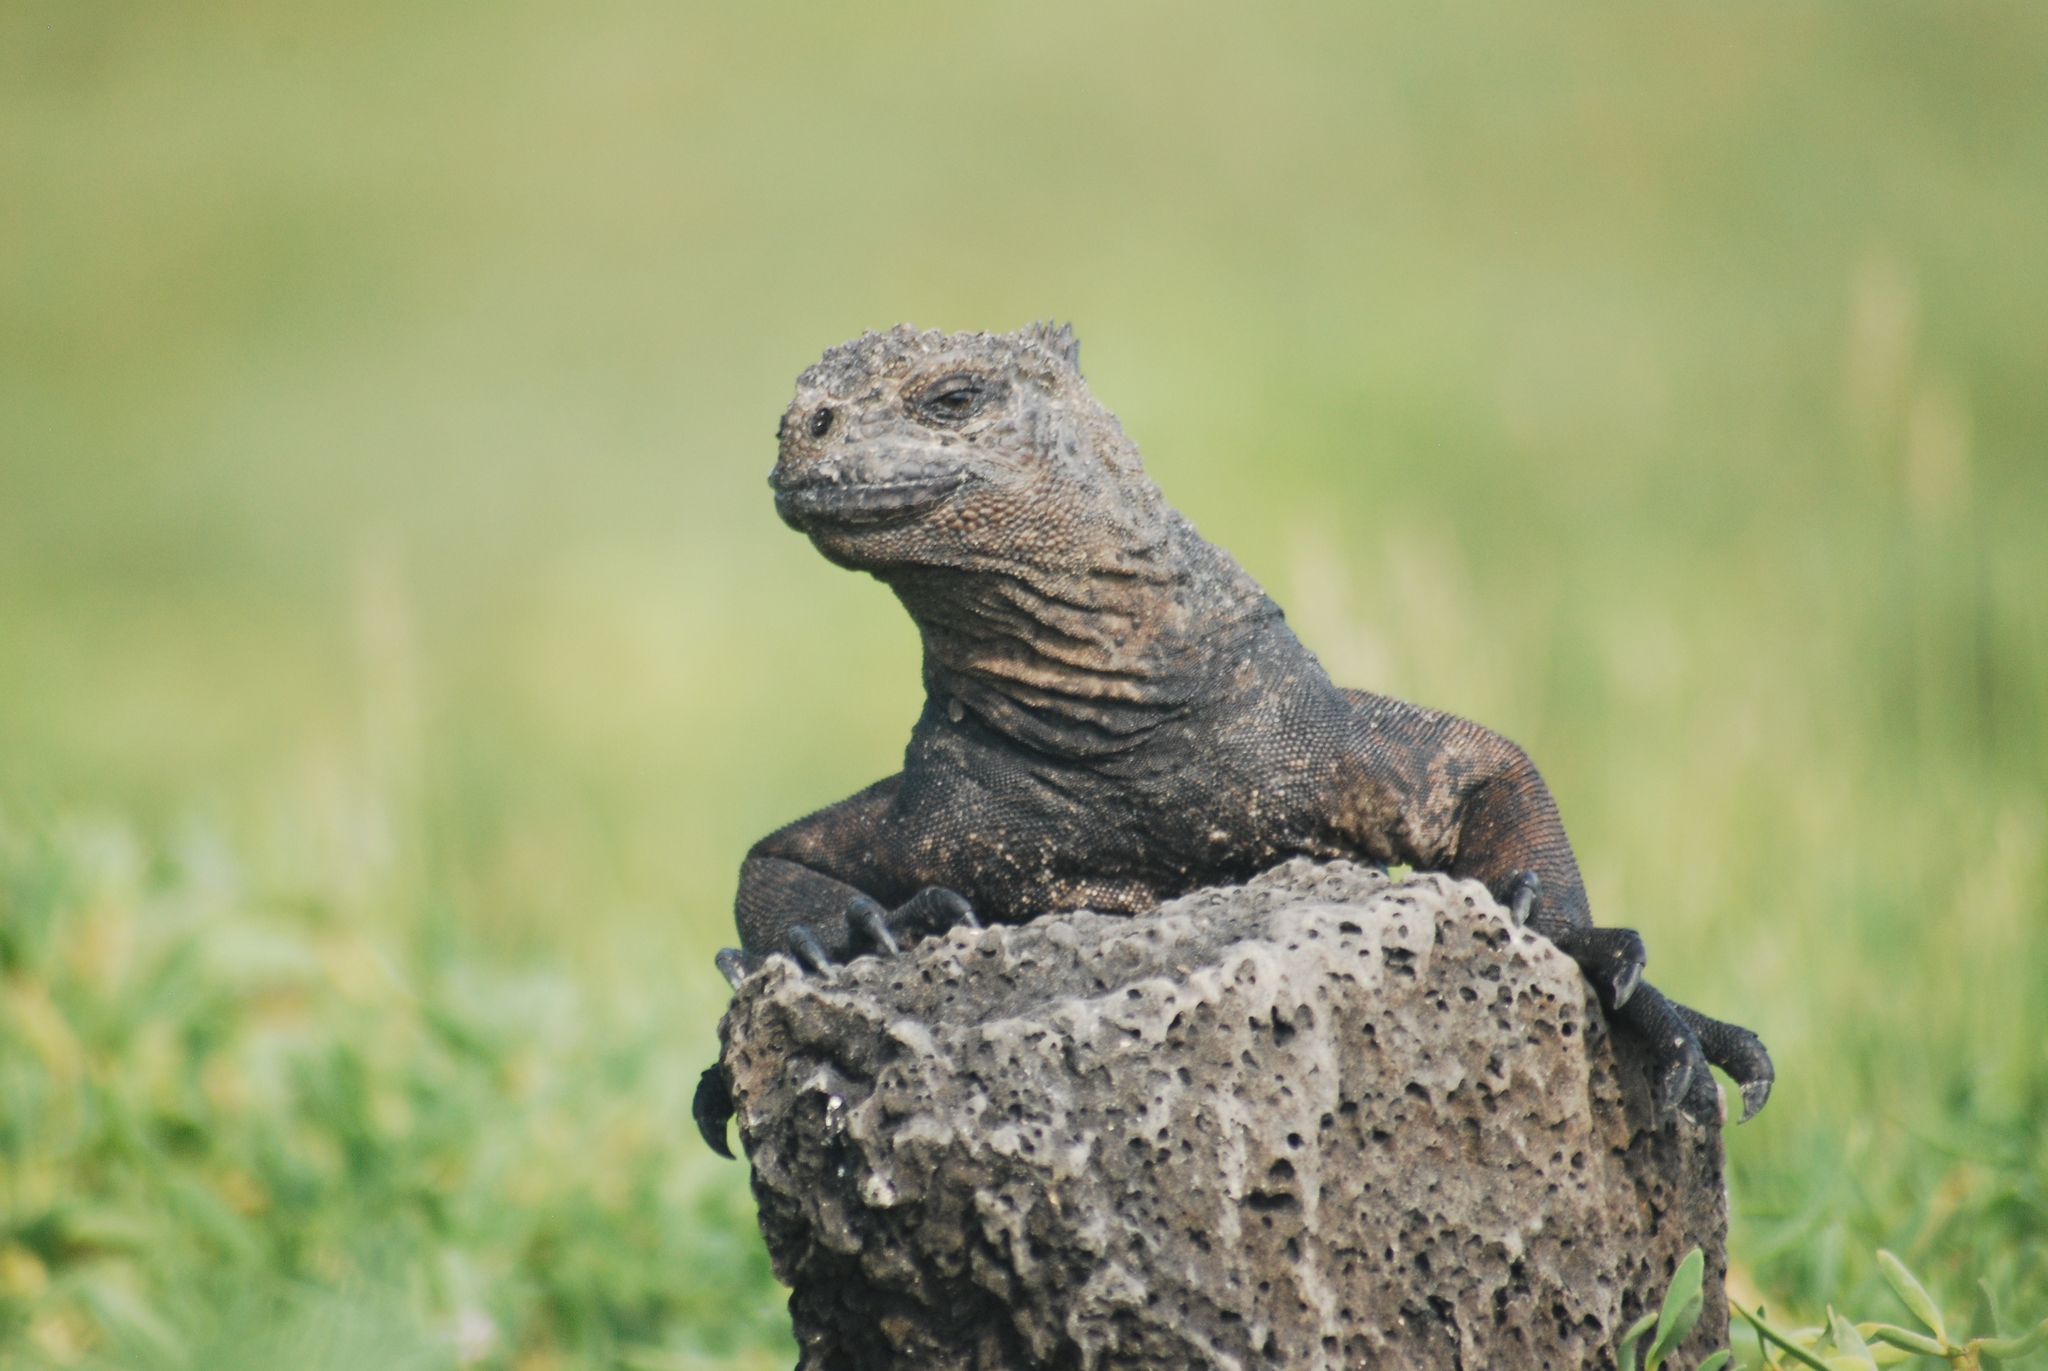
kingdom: Animalia
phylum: Chordata
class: Squamata
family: Iguanidae
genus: Amblyrhynchus
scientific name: Amblyrhynchus cristatus
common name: Marine iguana
